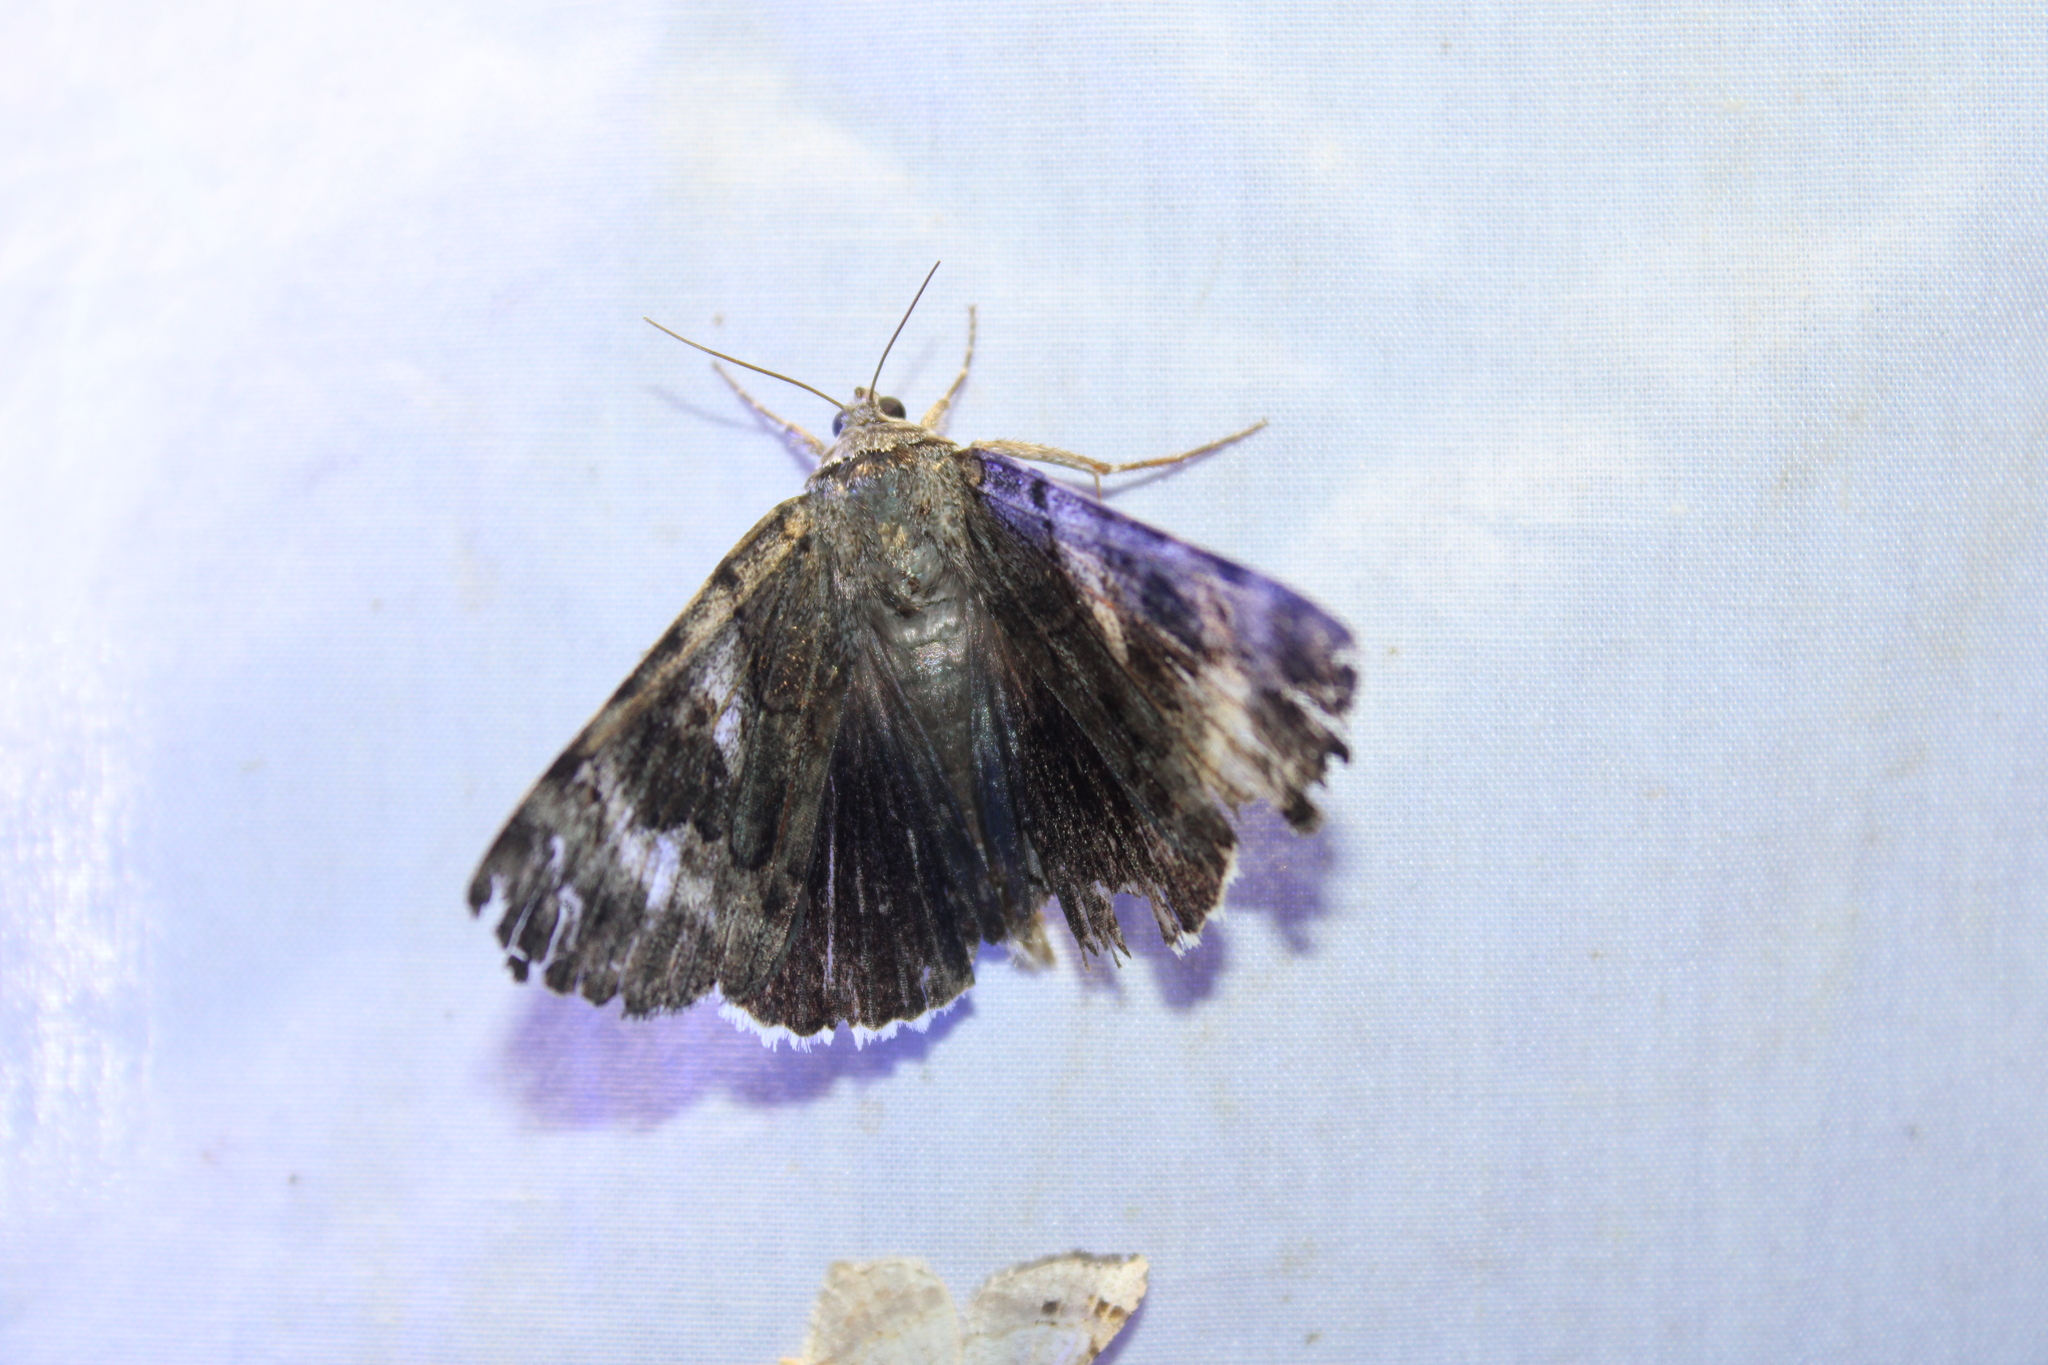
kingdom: Animalia
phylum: Arthropoda
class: Insecta
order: Lepidoptera
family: Erebidae
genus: Catocala
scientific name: Catocala epione
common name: Epione underwing
